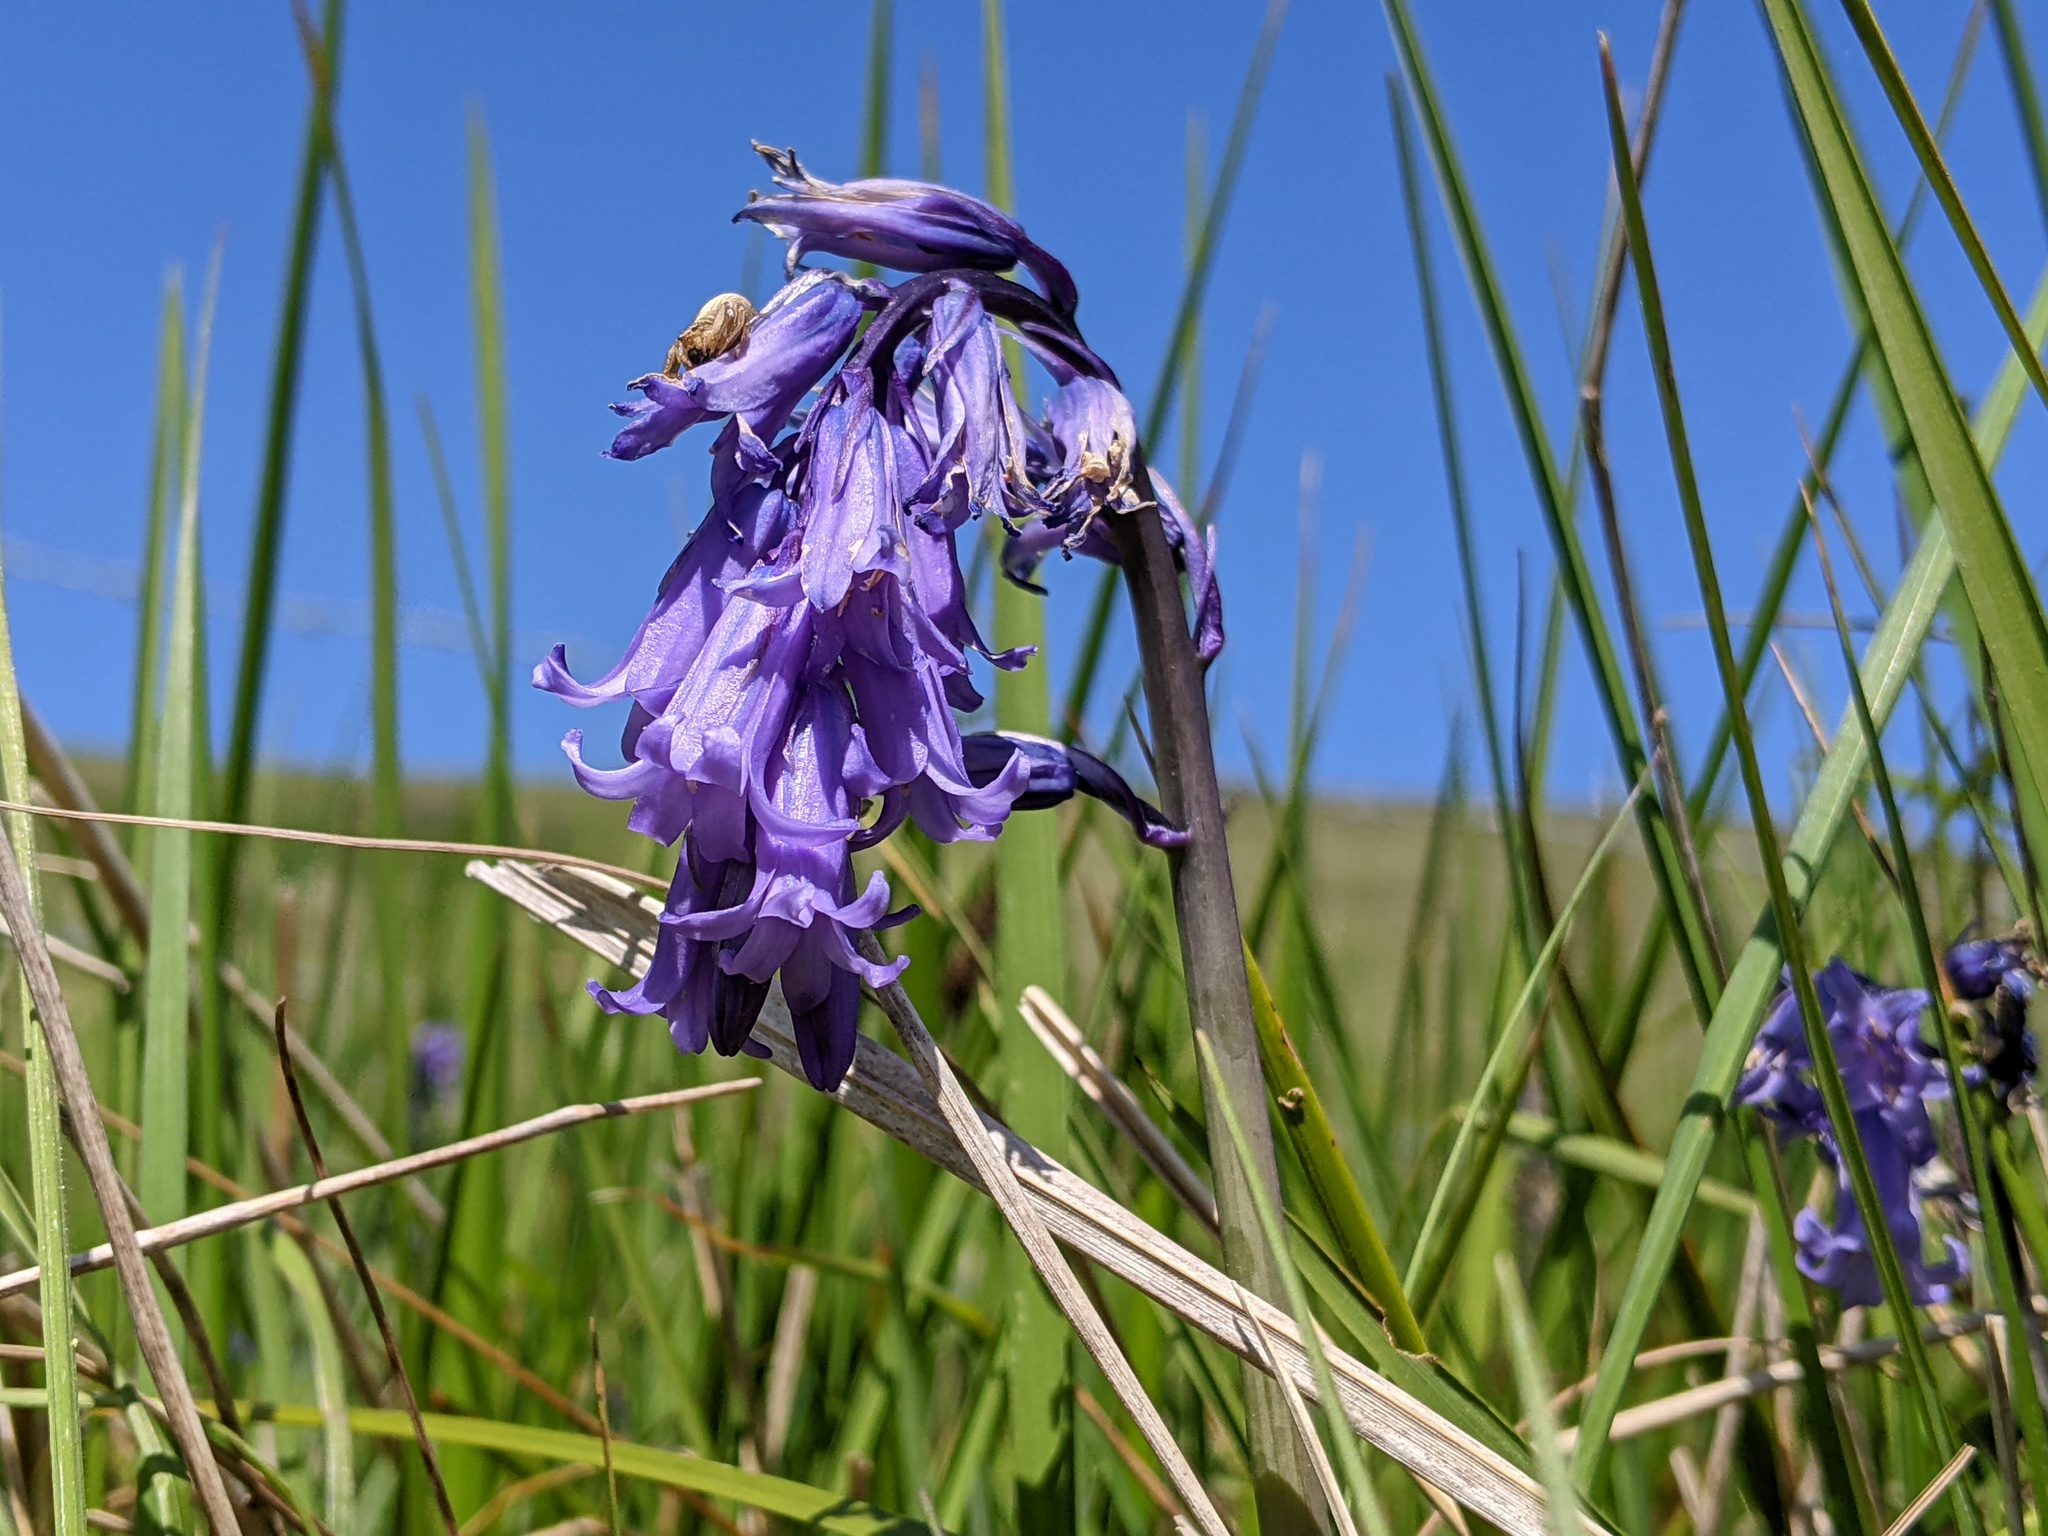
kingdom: Plantae
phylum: Tracheophyta
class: Liliopsida
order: Asparagales
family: Asparagaceae
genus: Hyacinthoides
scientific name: Hyacinthoides non-scripta
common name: Bluebell
